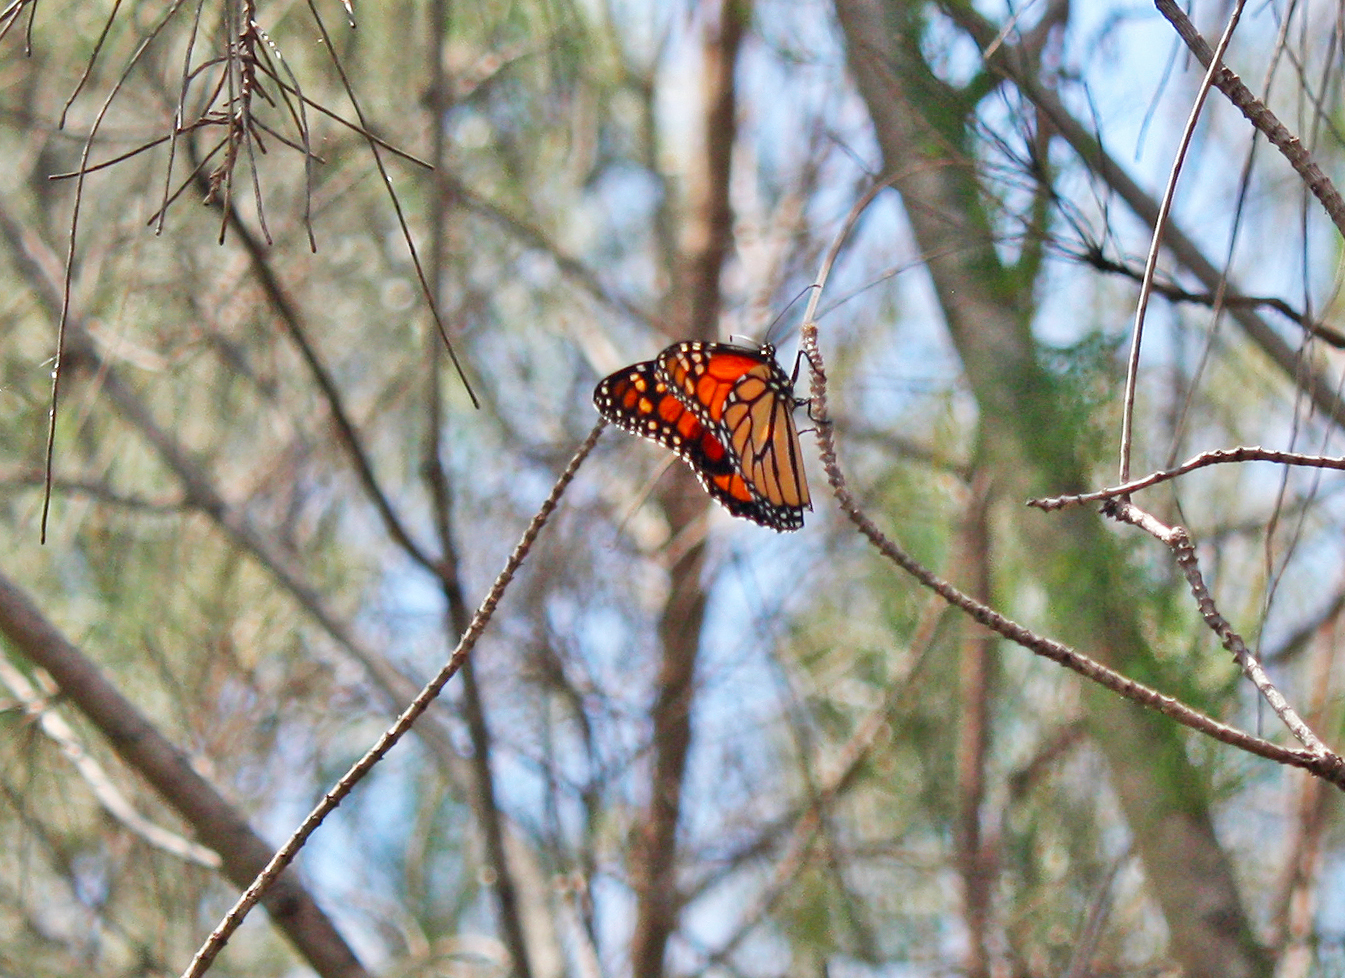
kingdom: Animalia
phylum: Arthropoda
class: Insecta
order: Lepidoptera
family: Nymphalidae
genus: Danaus
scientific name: Danaus plexippus
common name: Monarch
